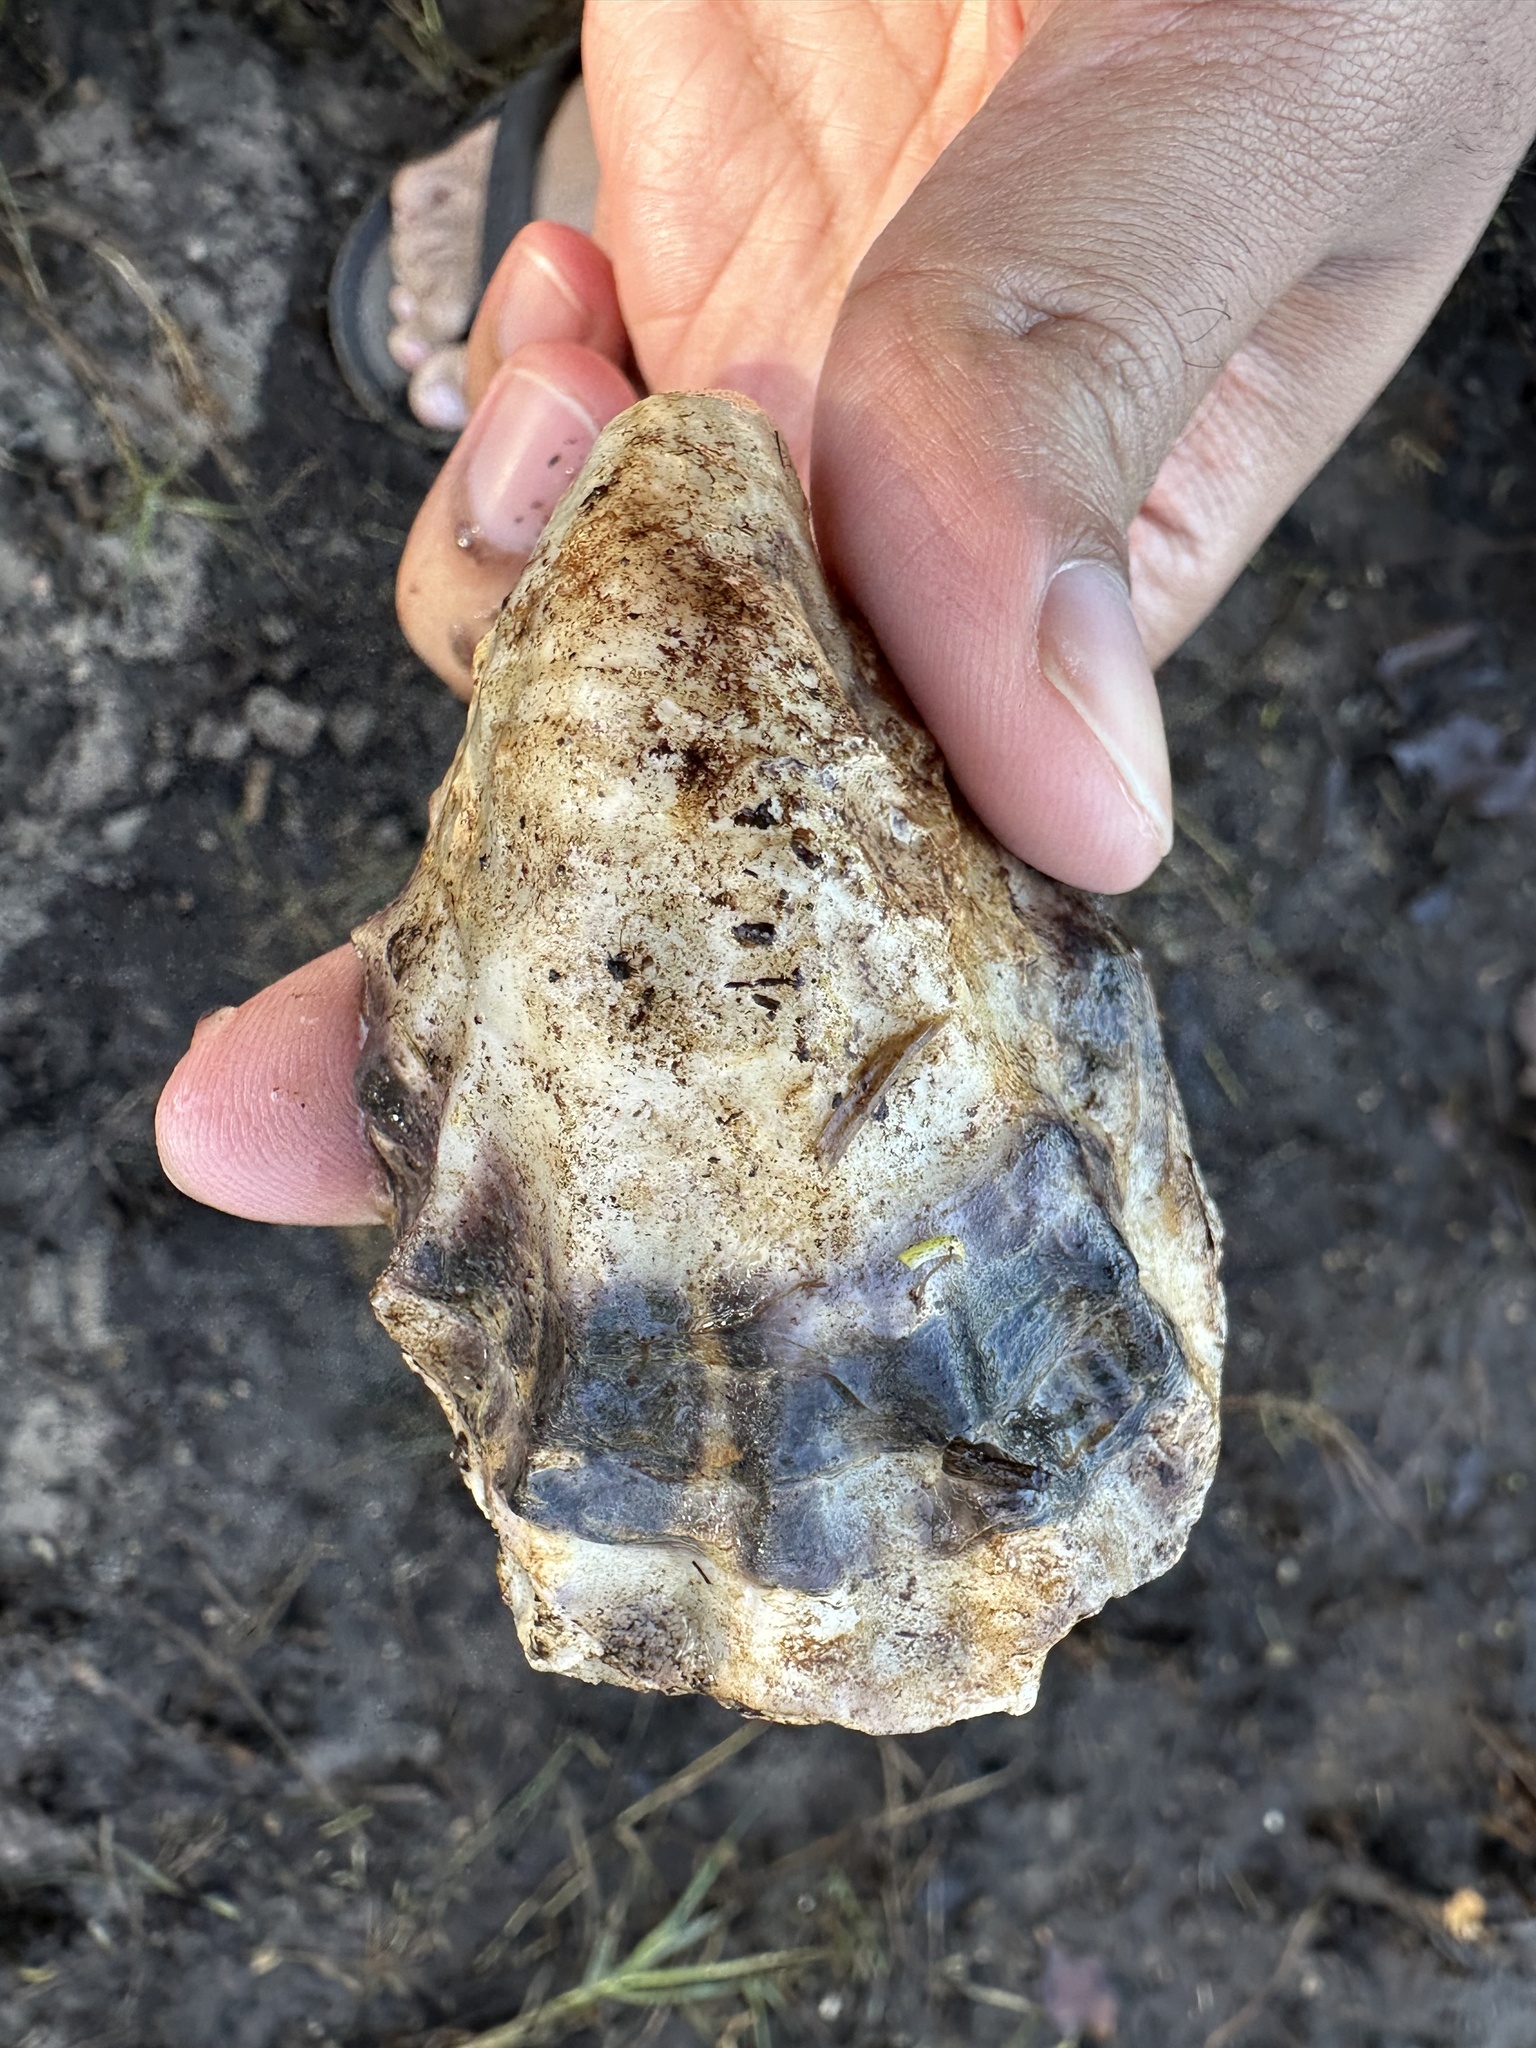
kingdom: Animalia
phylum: Mollusca
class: Bivalvia
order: Ostreida
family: Ostreidae
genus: Magallana
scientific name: Magallana gigas
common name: Pacific oyster
